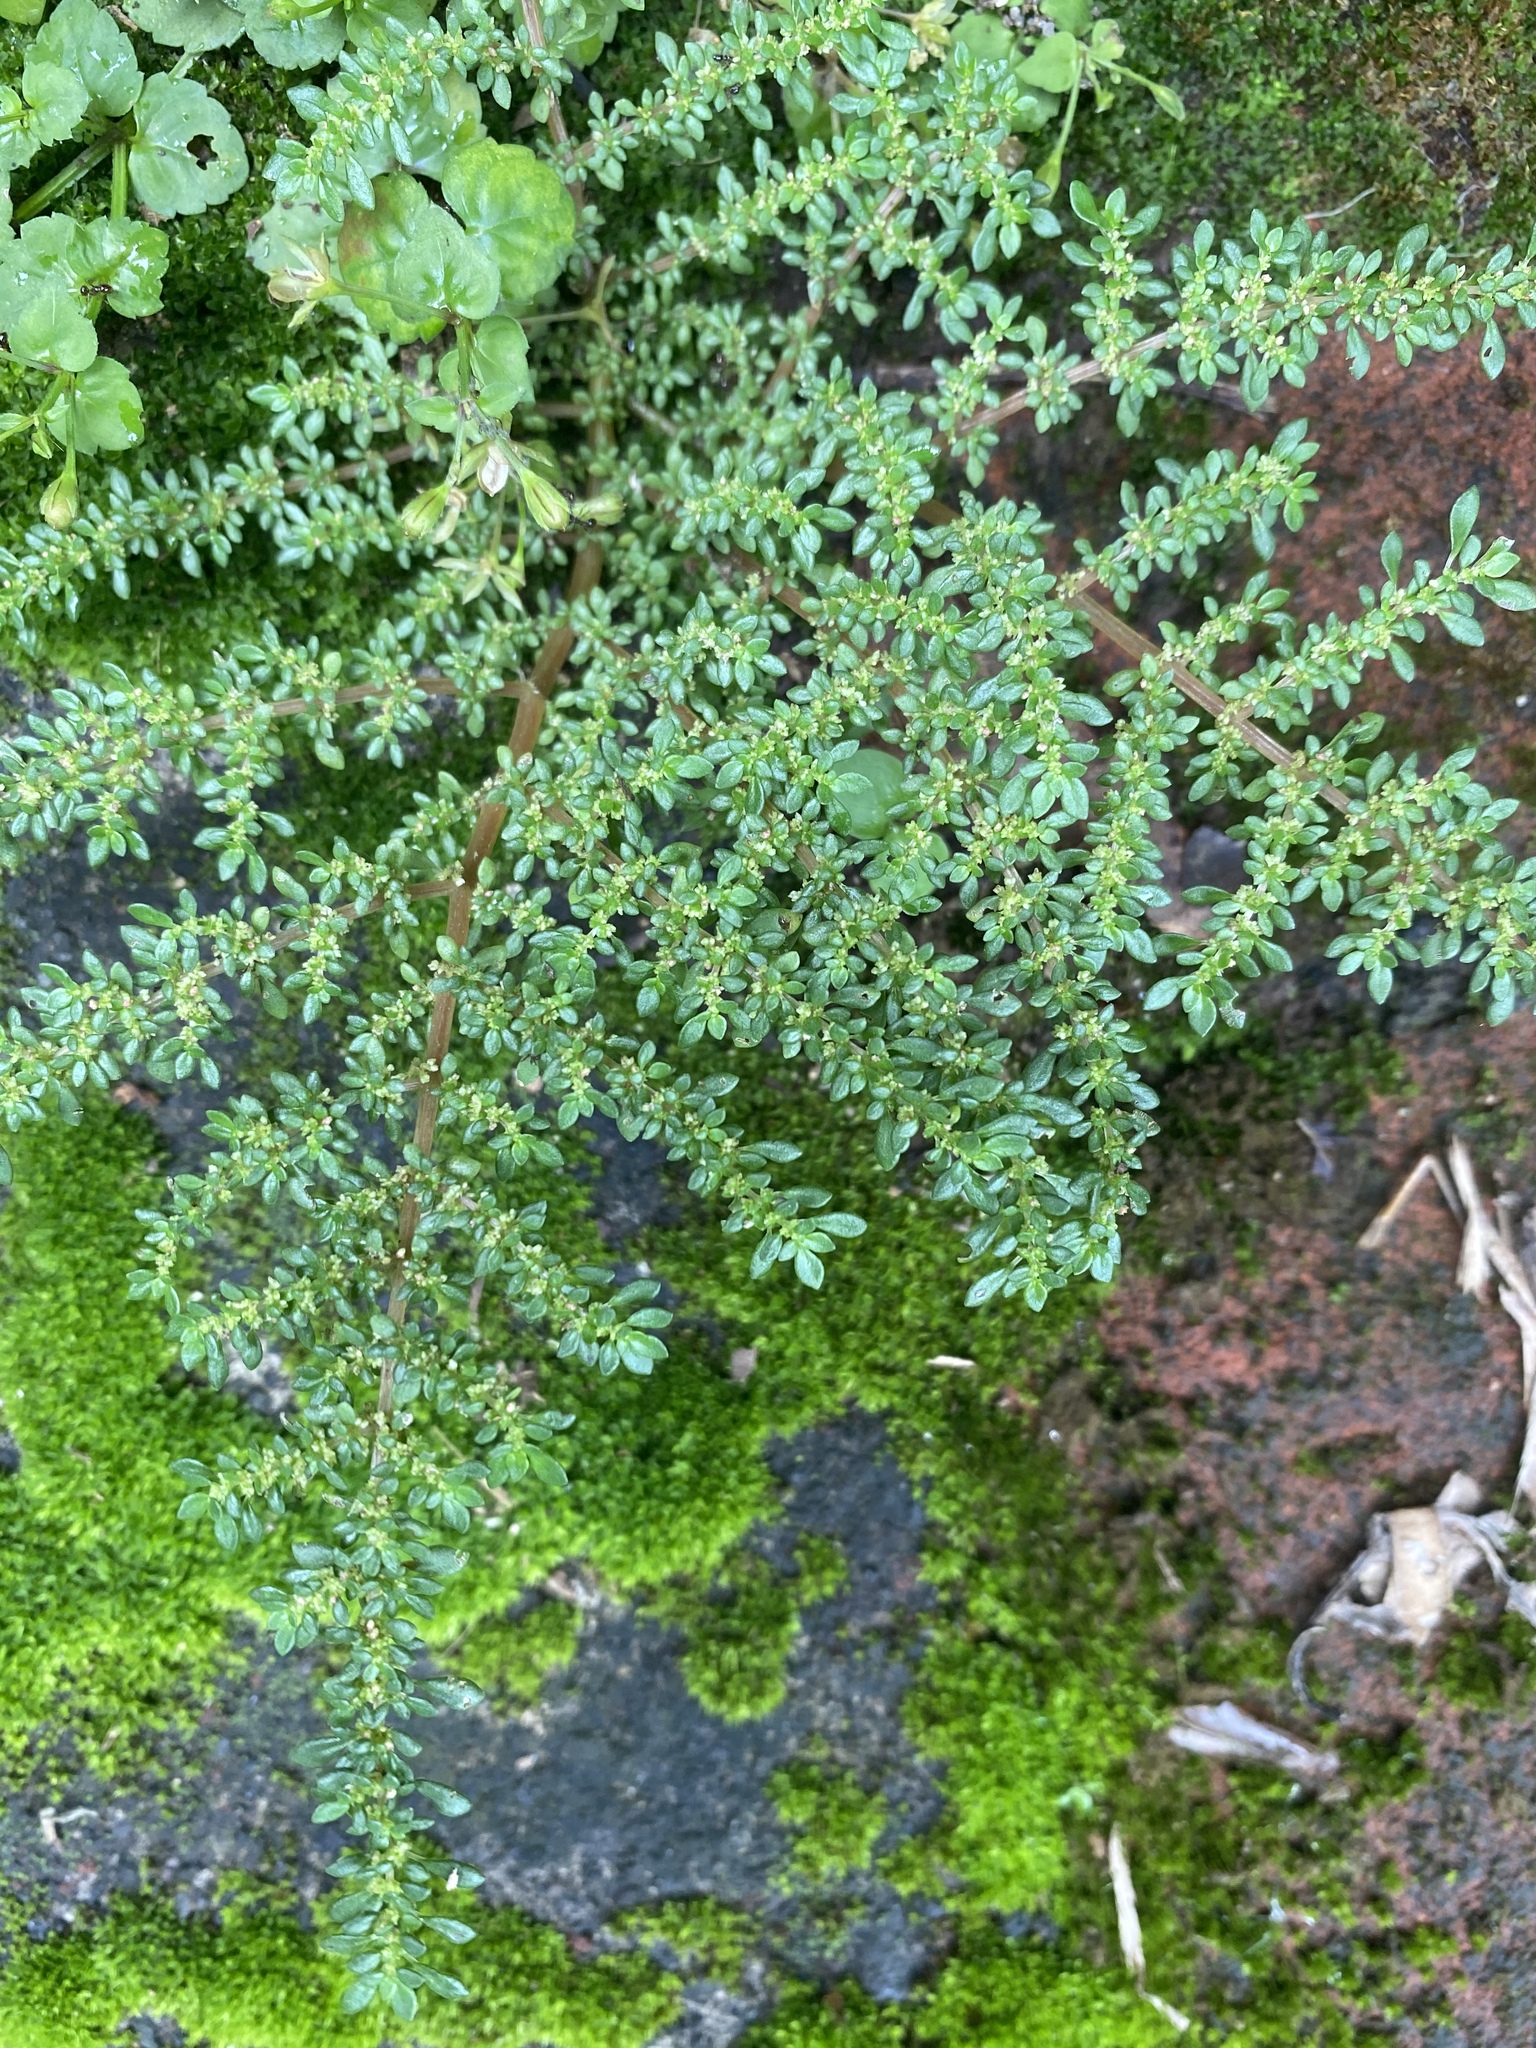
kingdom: Plantae
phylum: Tracheophyta
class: Magnoliopsida
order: Rosales
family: Urticaceae
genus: Pilea
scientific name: Pilea microphylla
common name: Artillery-plant
